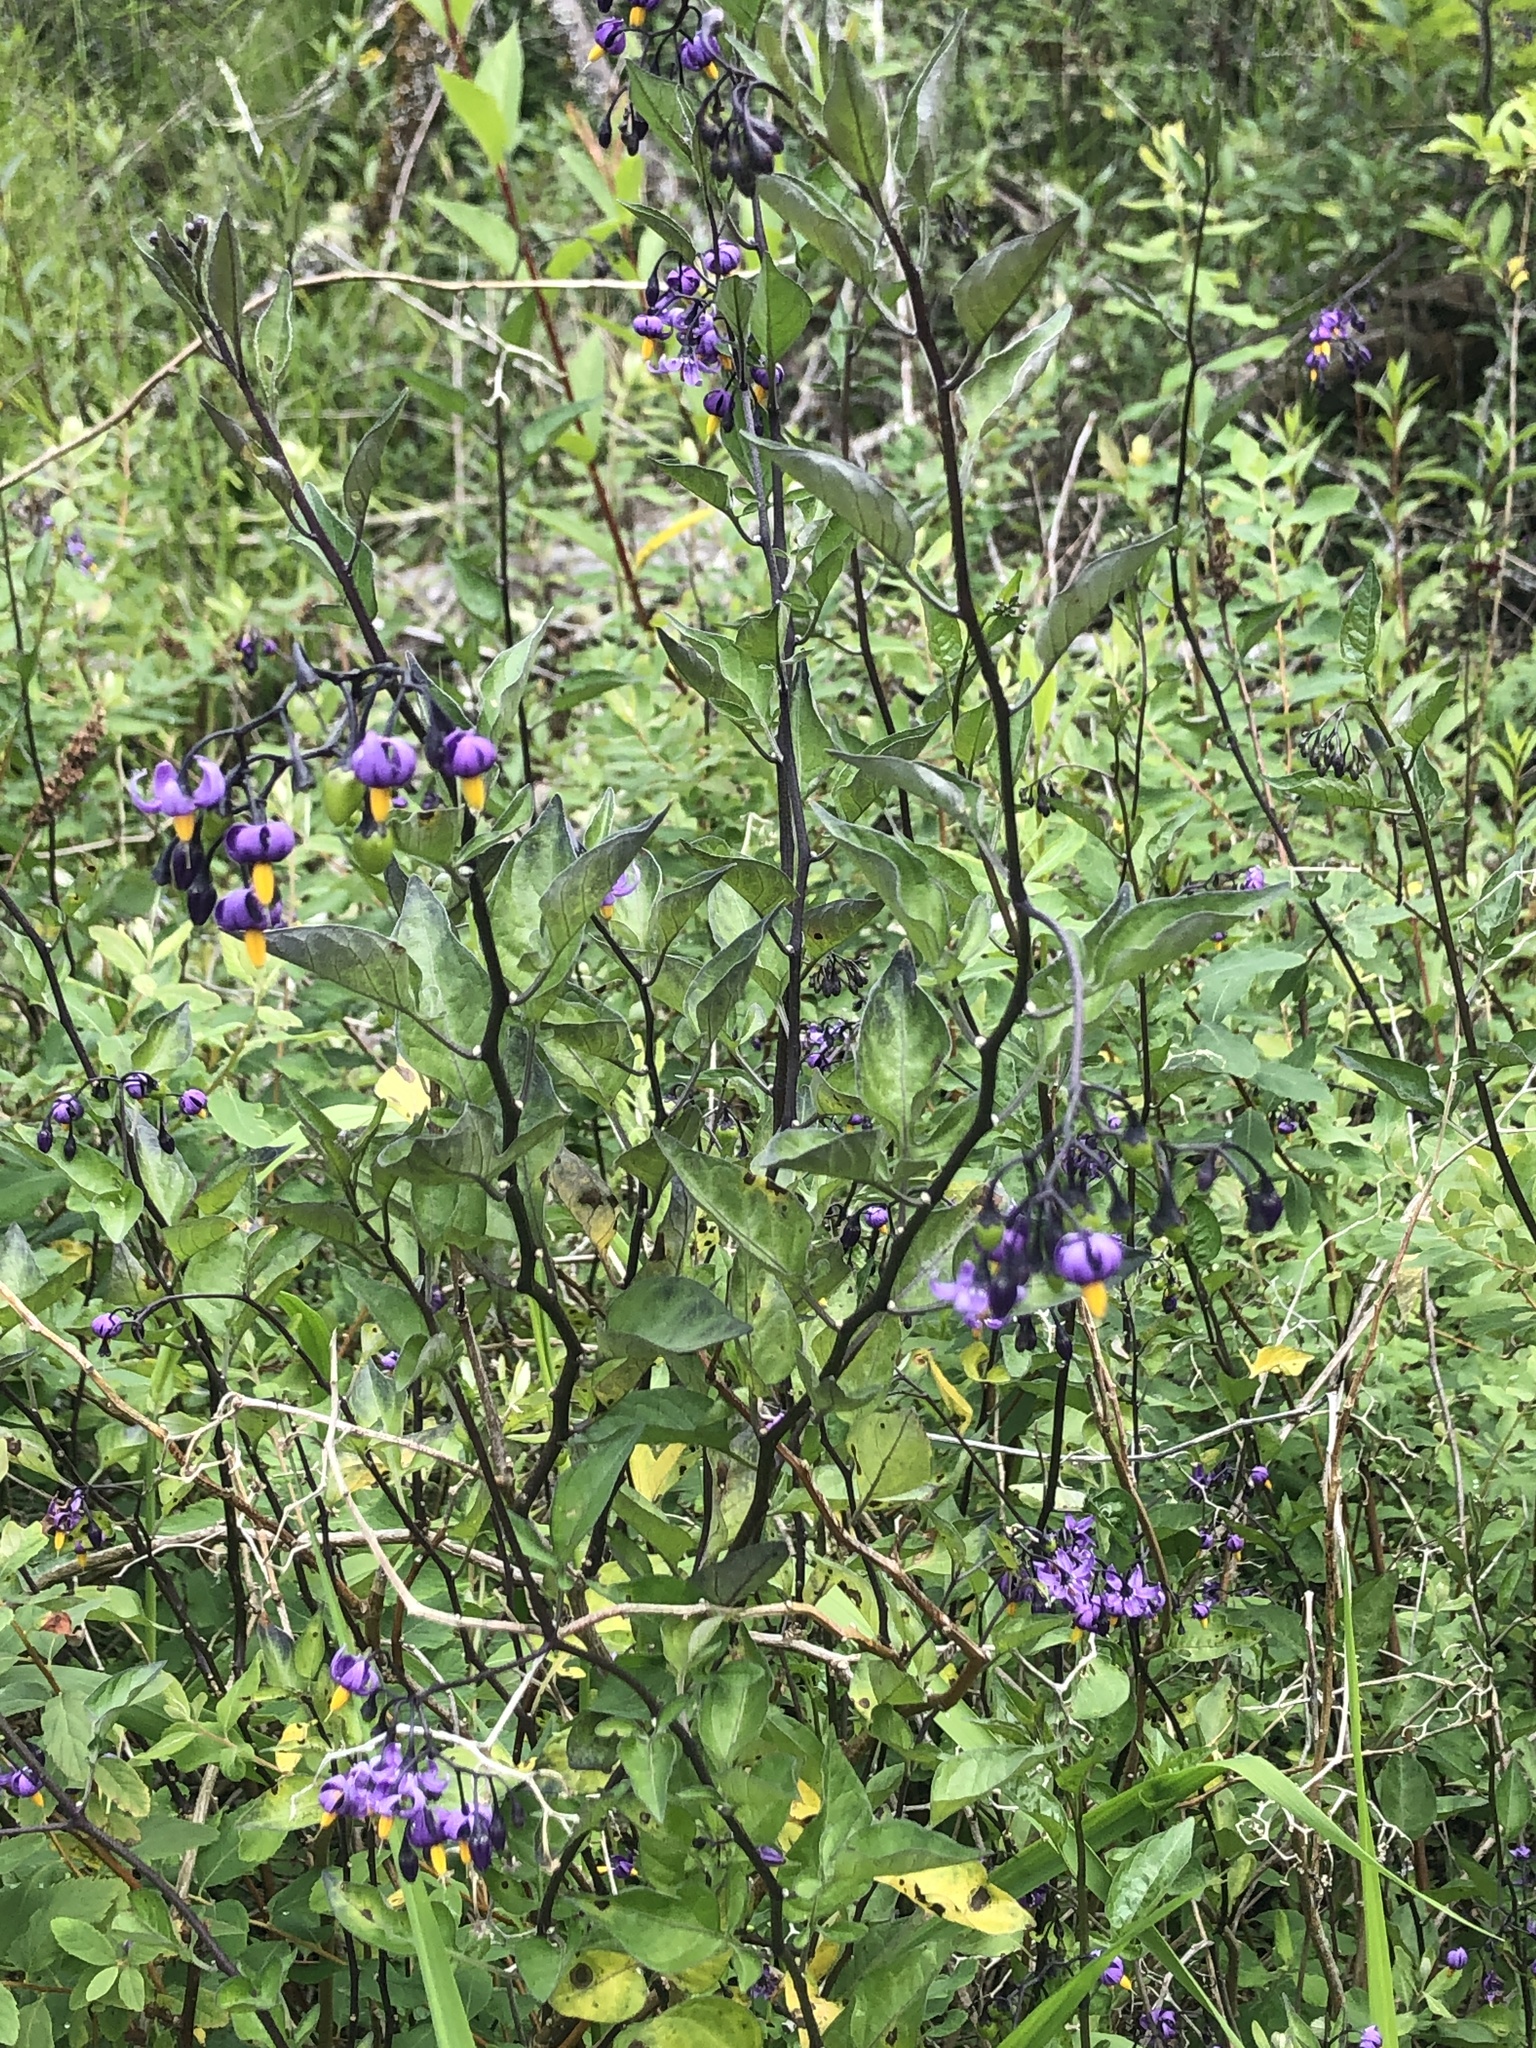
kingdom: Plantae
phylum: Tracheophyta
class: Magnoliopsida
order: Solanales
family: Solanaceae
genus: Solanum
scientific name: Solanum dulcamara
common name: Climbing nightshade
